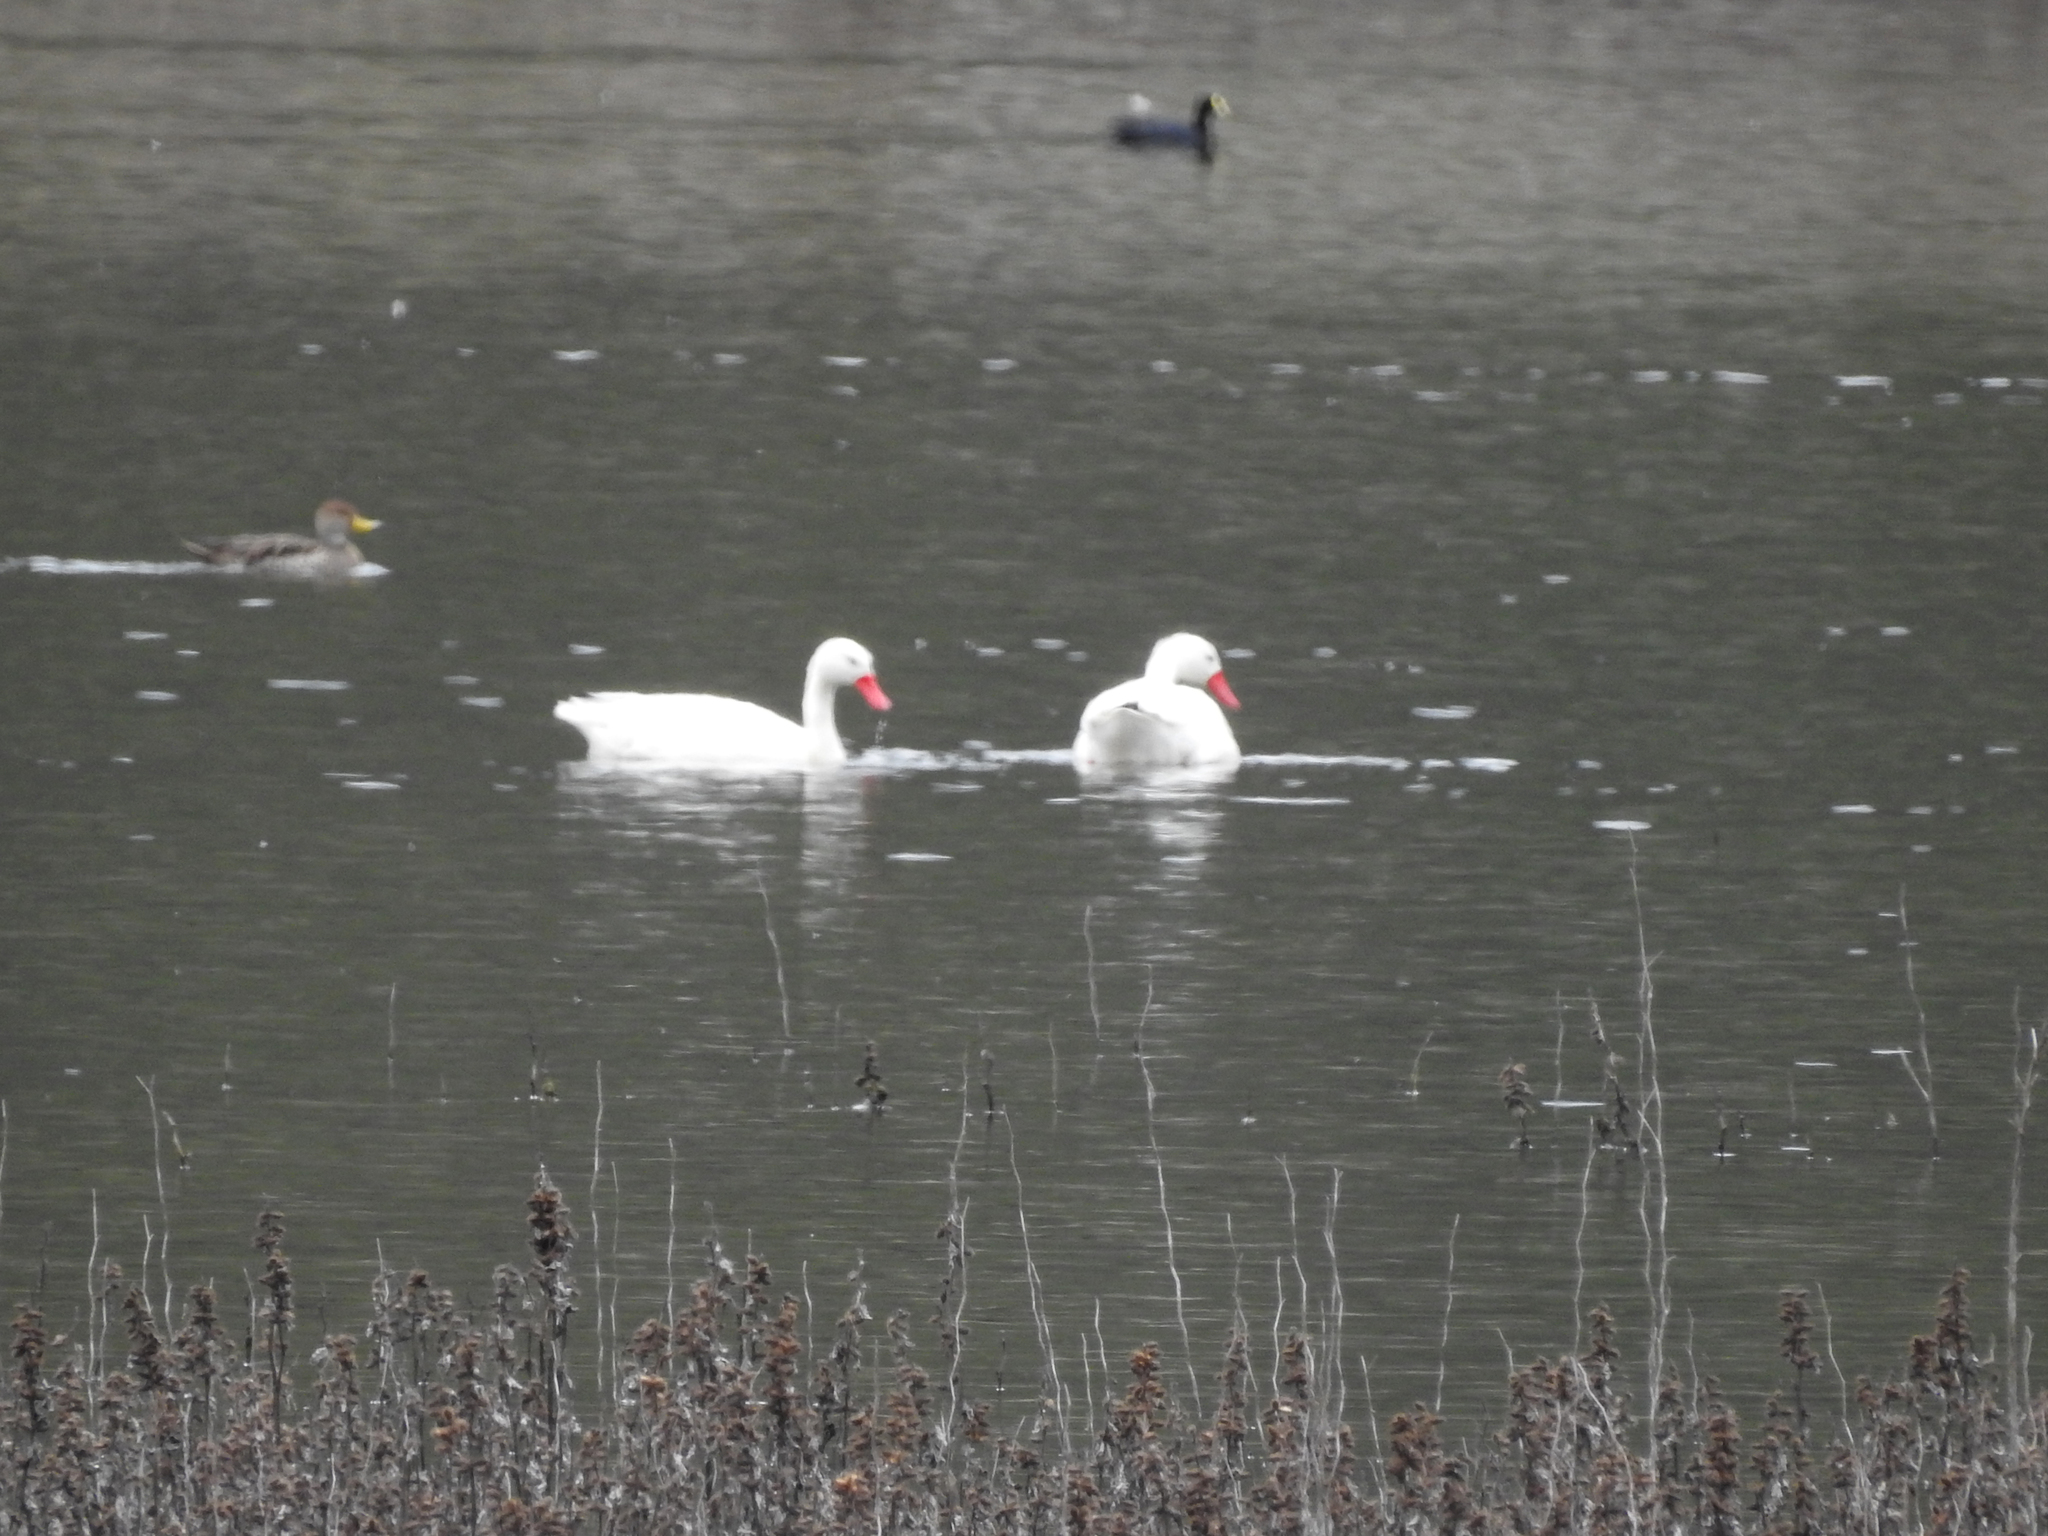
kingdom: Animalia
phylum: Chordata
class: Aves
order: Anseriformes
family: Anatidae
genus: Coscoroba
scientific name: Coscoroba coscoroba
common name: Coscoroba swan
